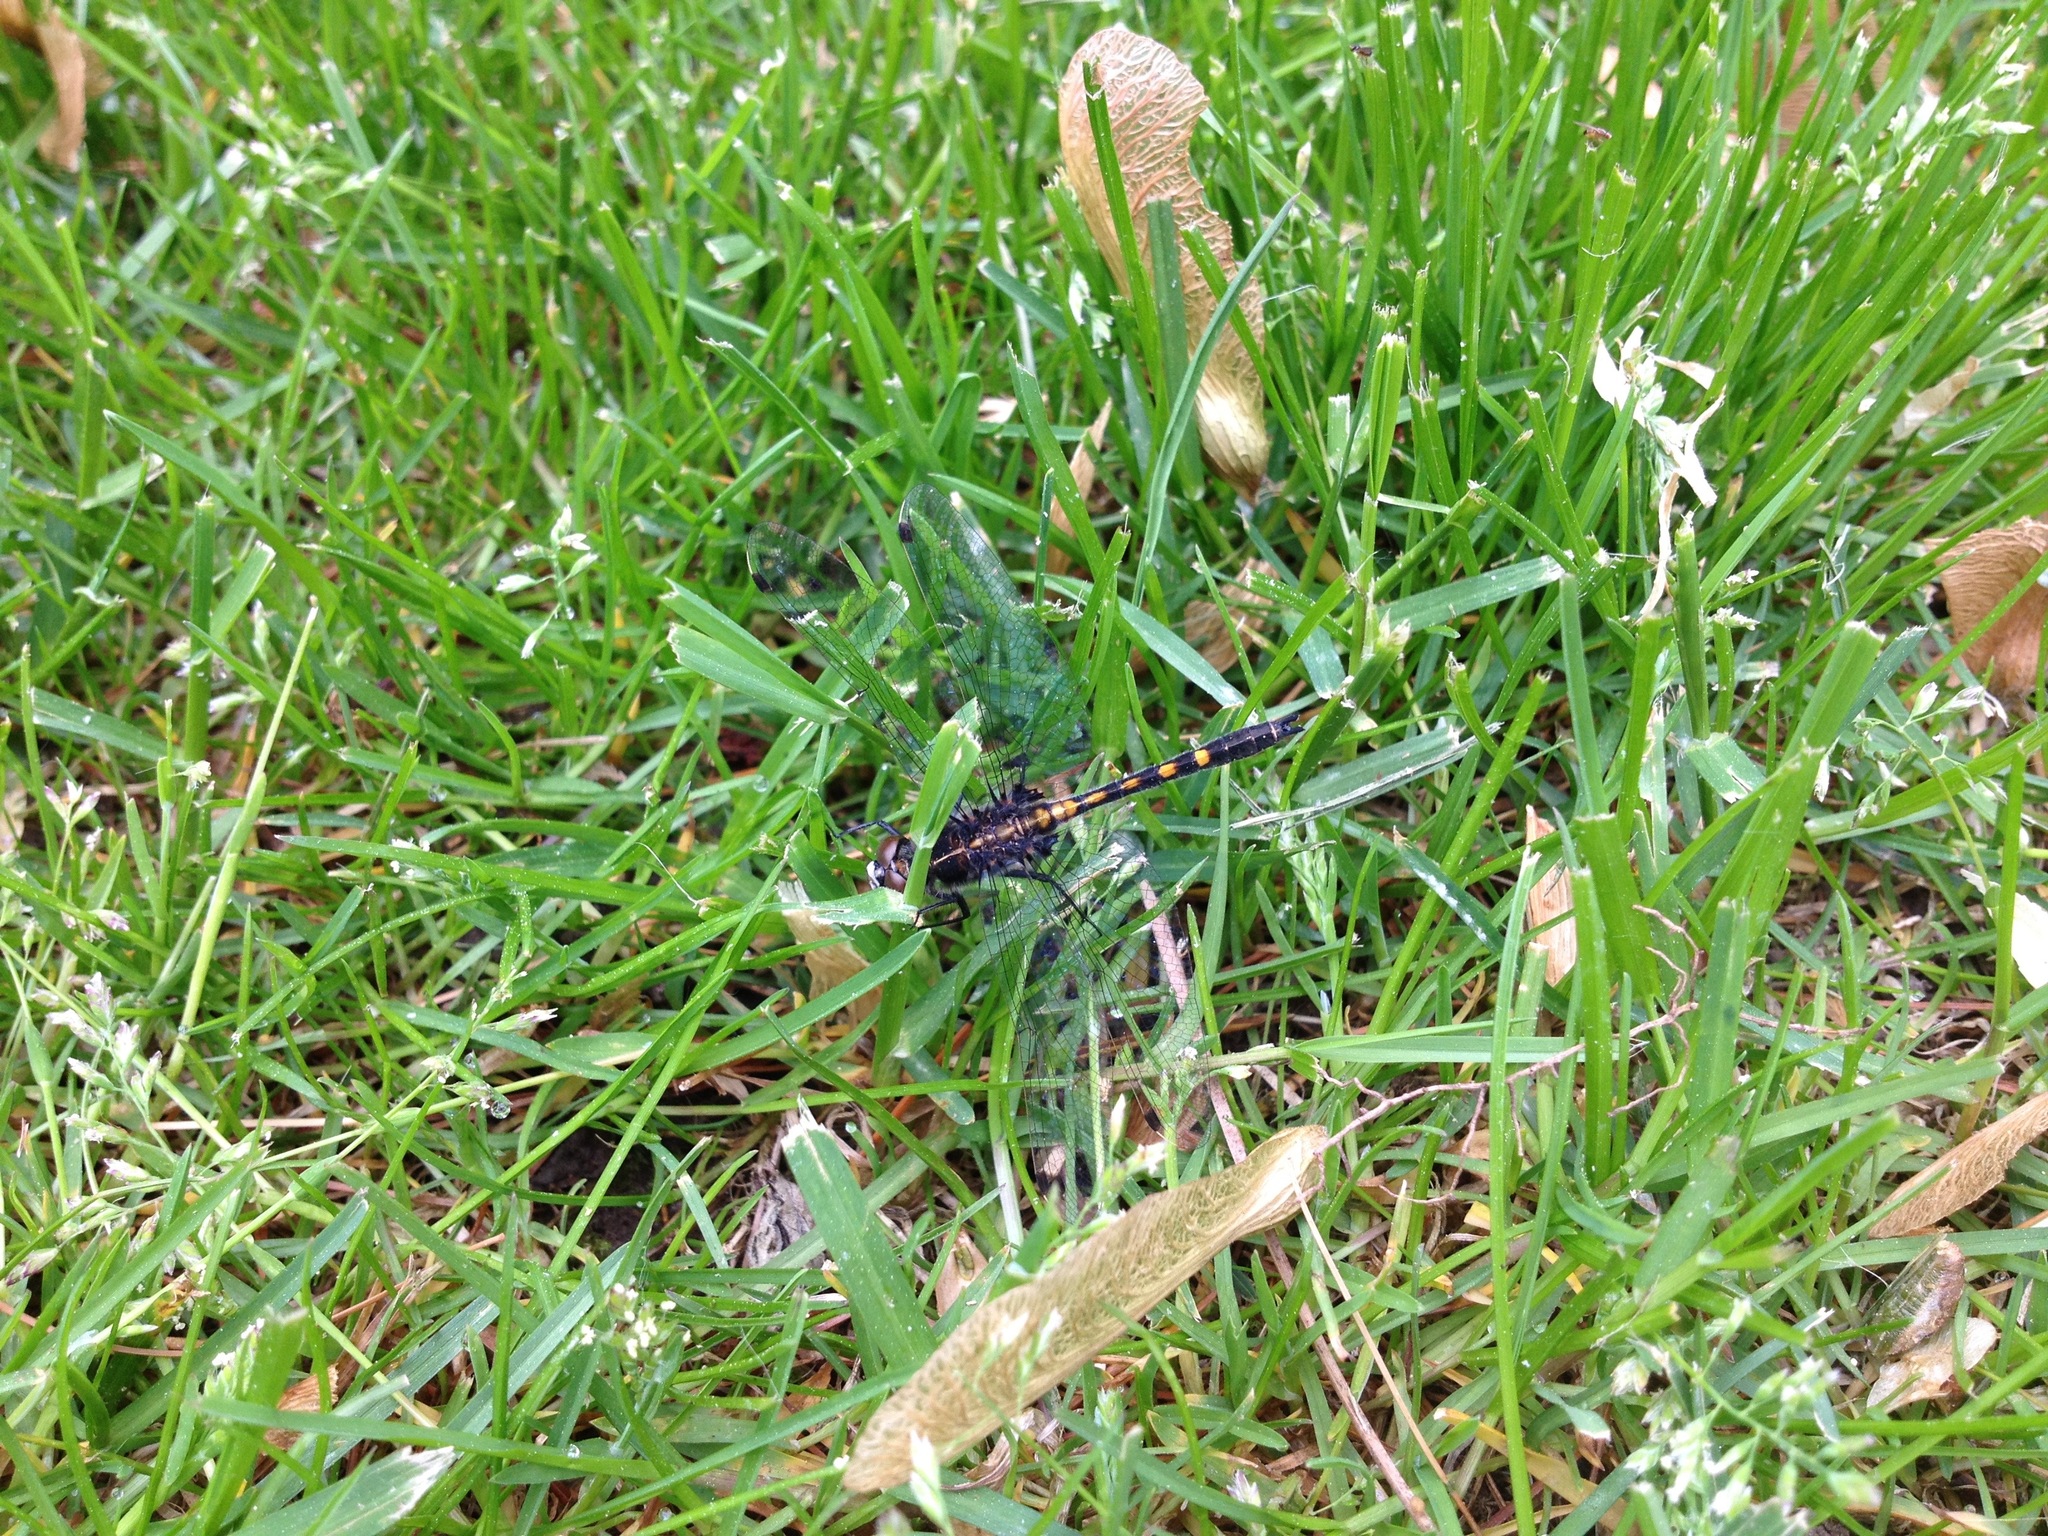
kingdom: Animalia
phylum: Arthropoda
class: Insecta
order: Odonata
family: Libellulidae
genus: Leucorrhinia
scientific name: Leucorrhinia intacta
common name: Dot-tailed whiteface
